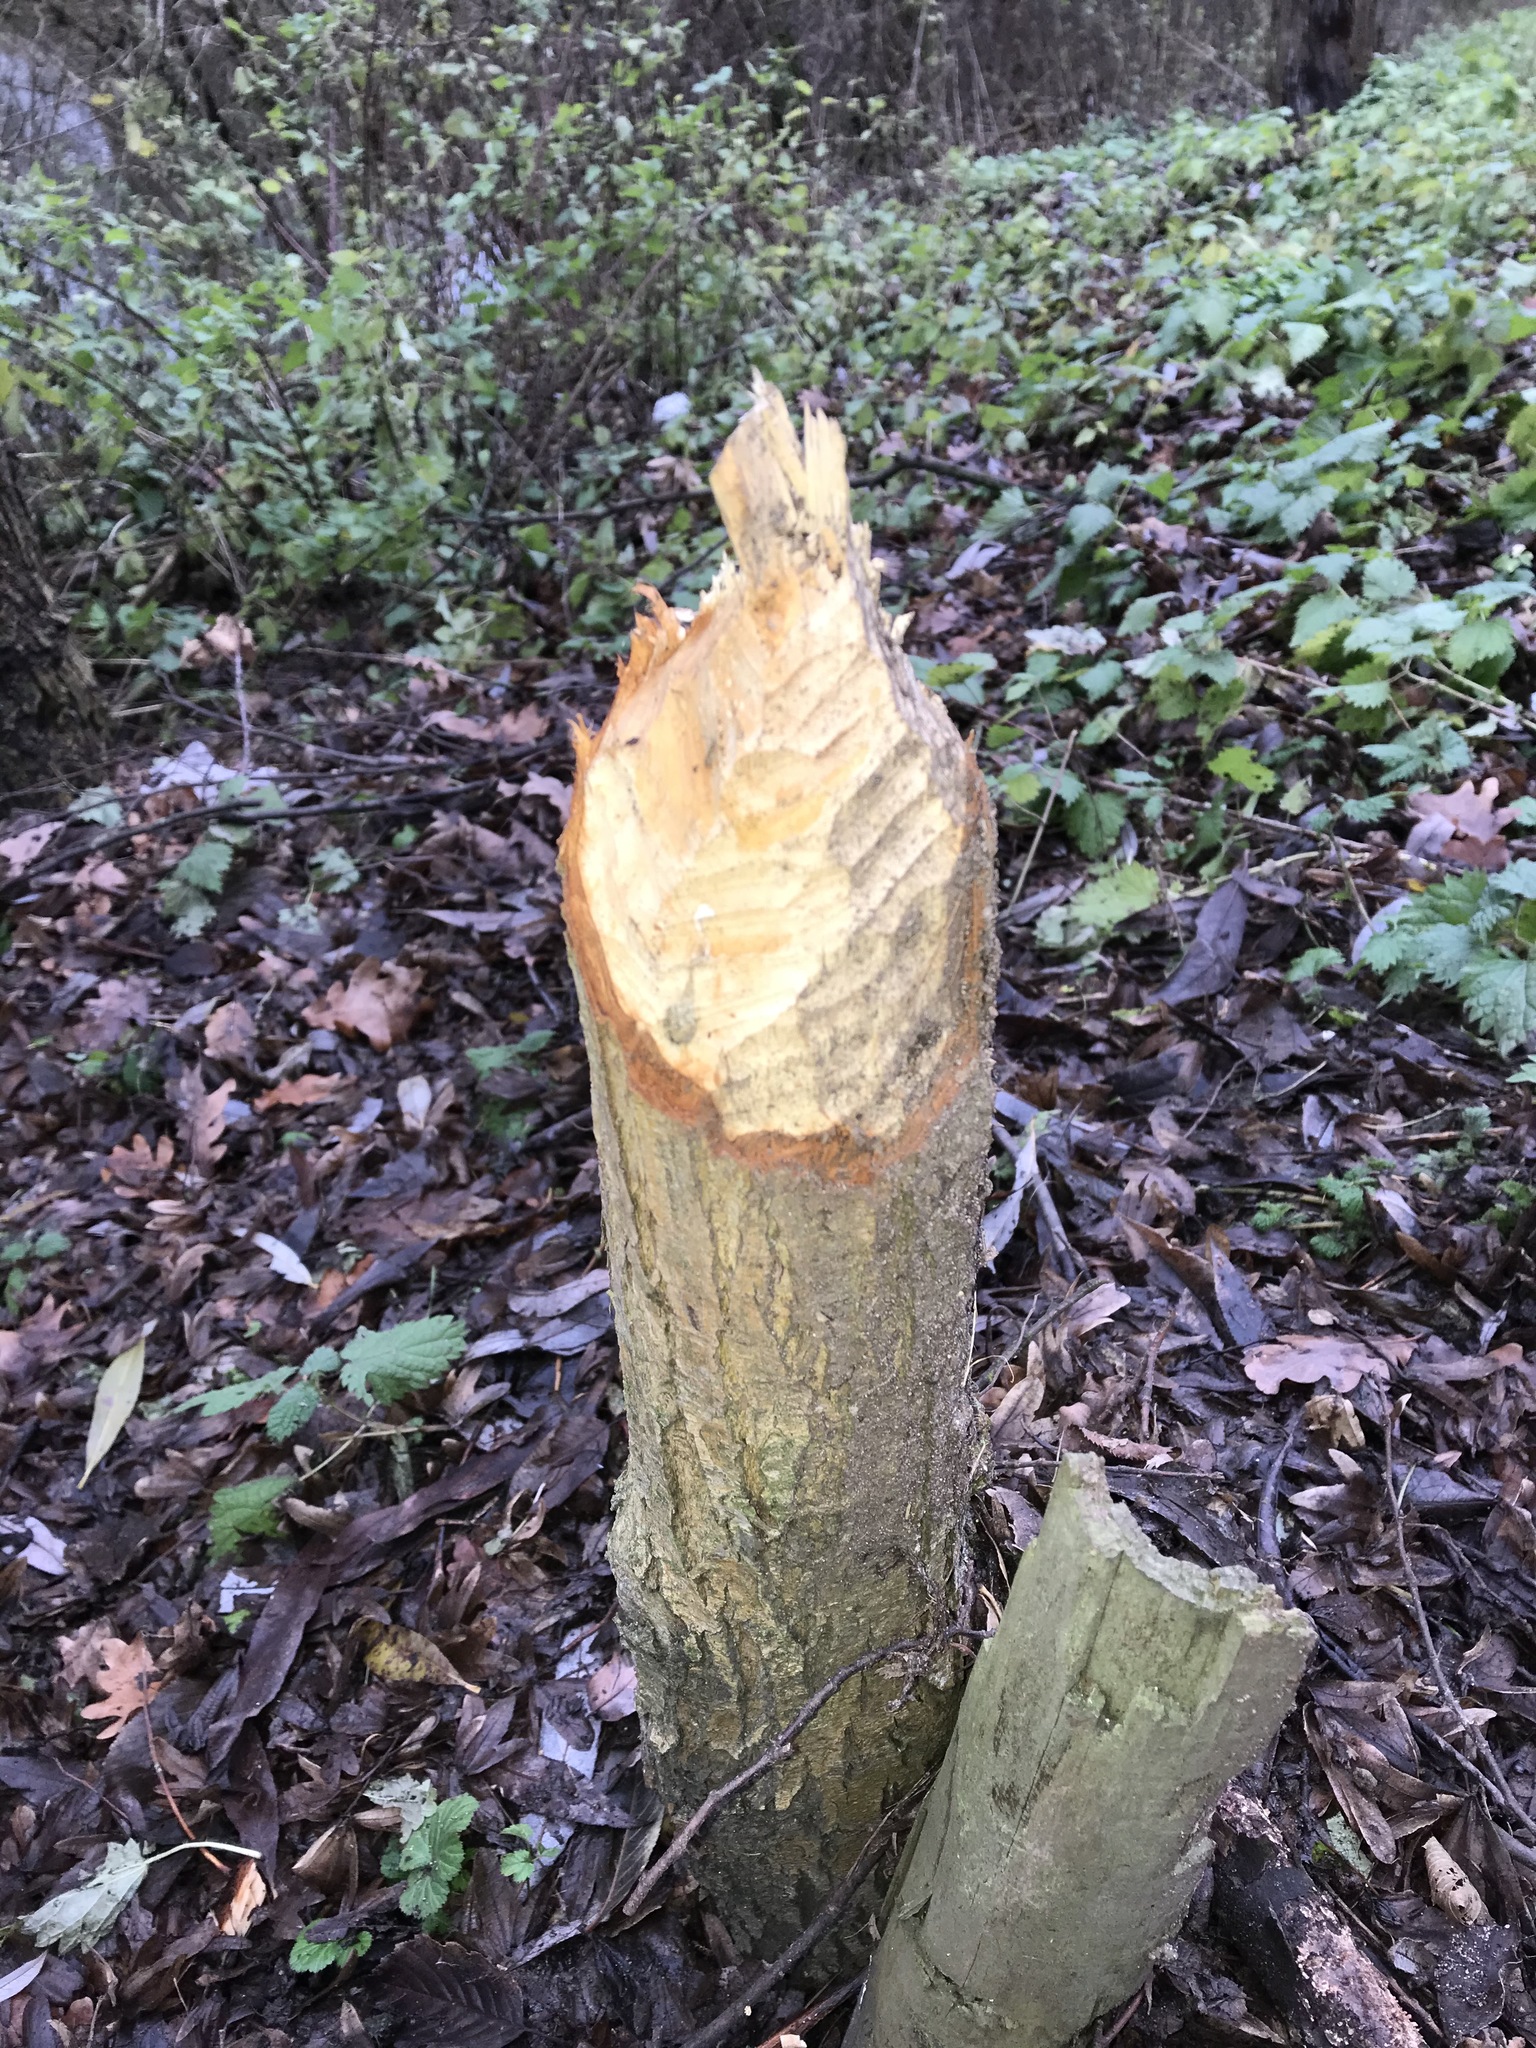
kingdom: Animalia
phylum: Chordata
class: Mammalia
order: Rodentia
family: Castoridae
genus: Castor
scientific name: Castor fiber
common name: Eurasian beaver
